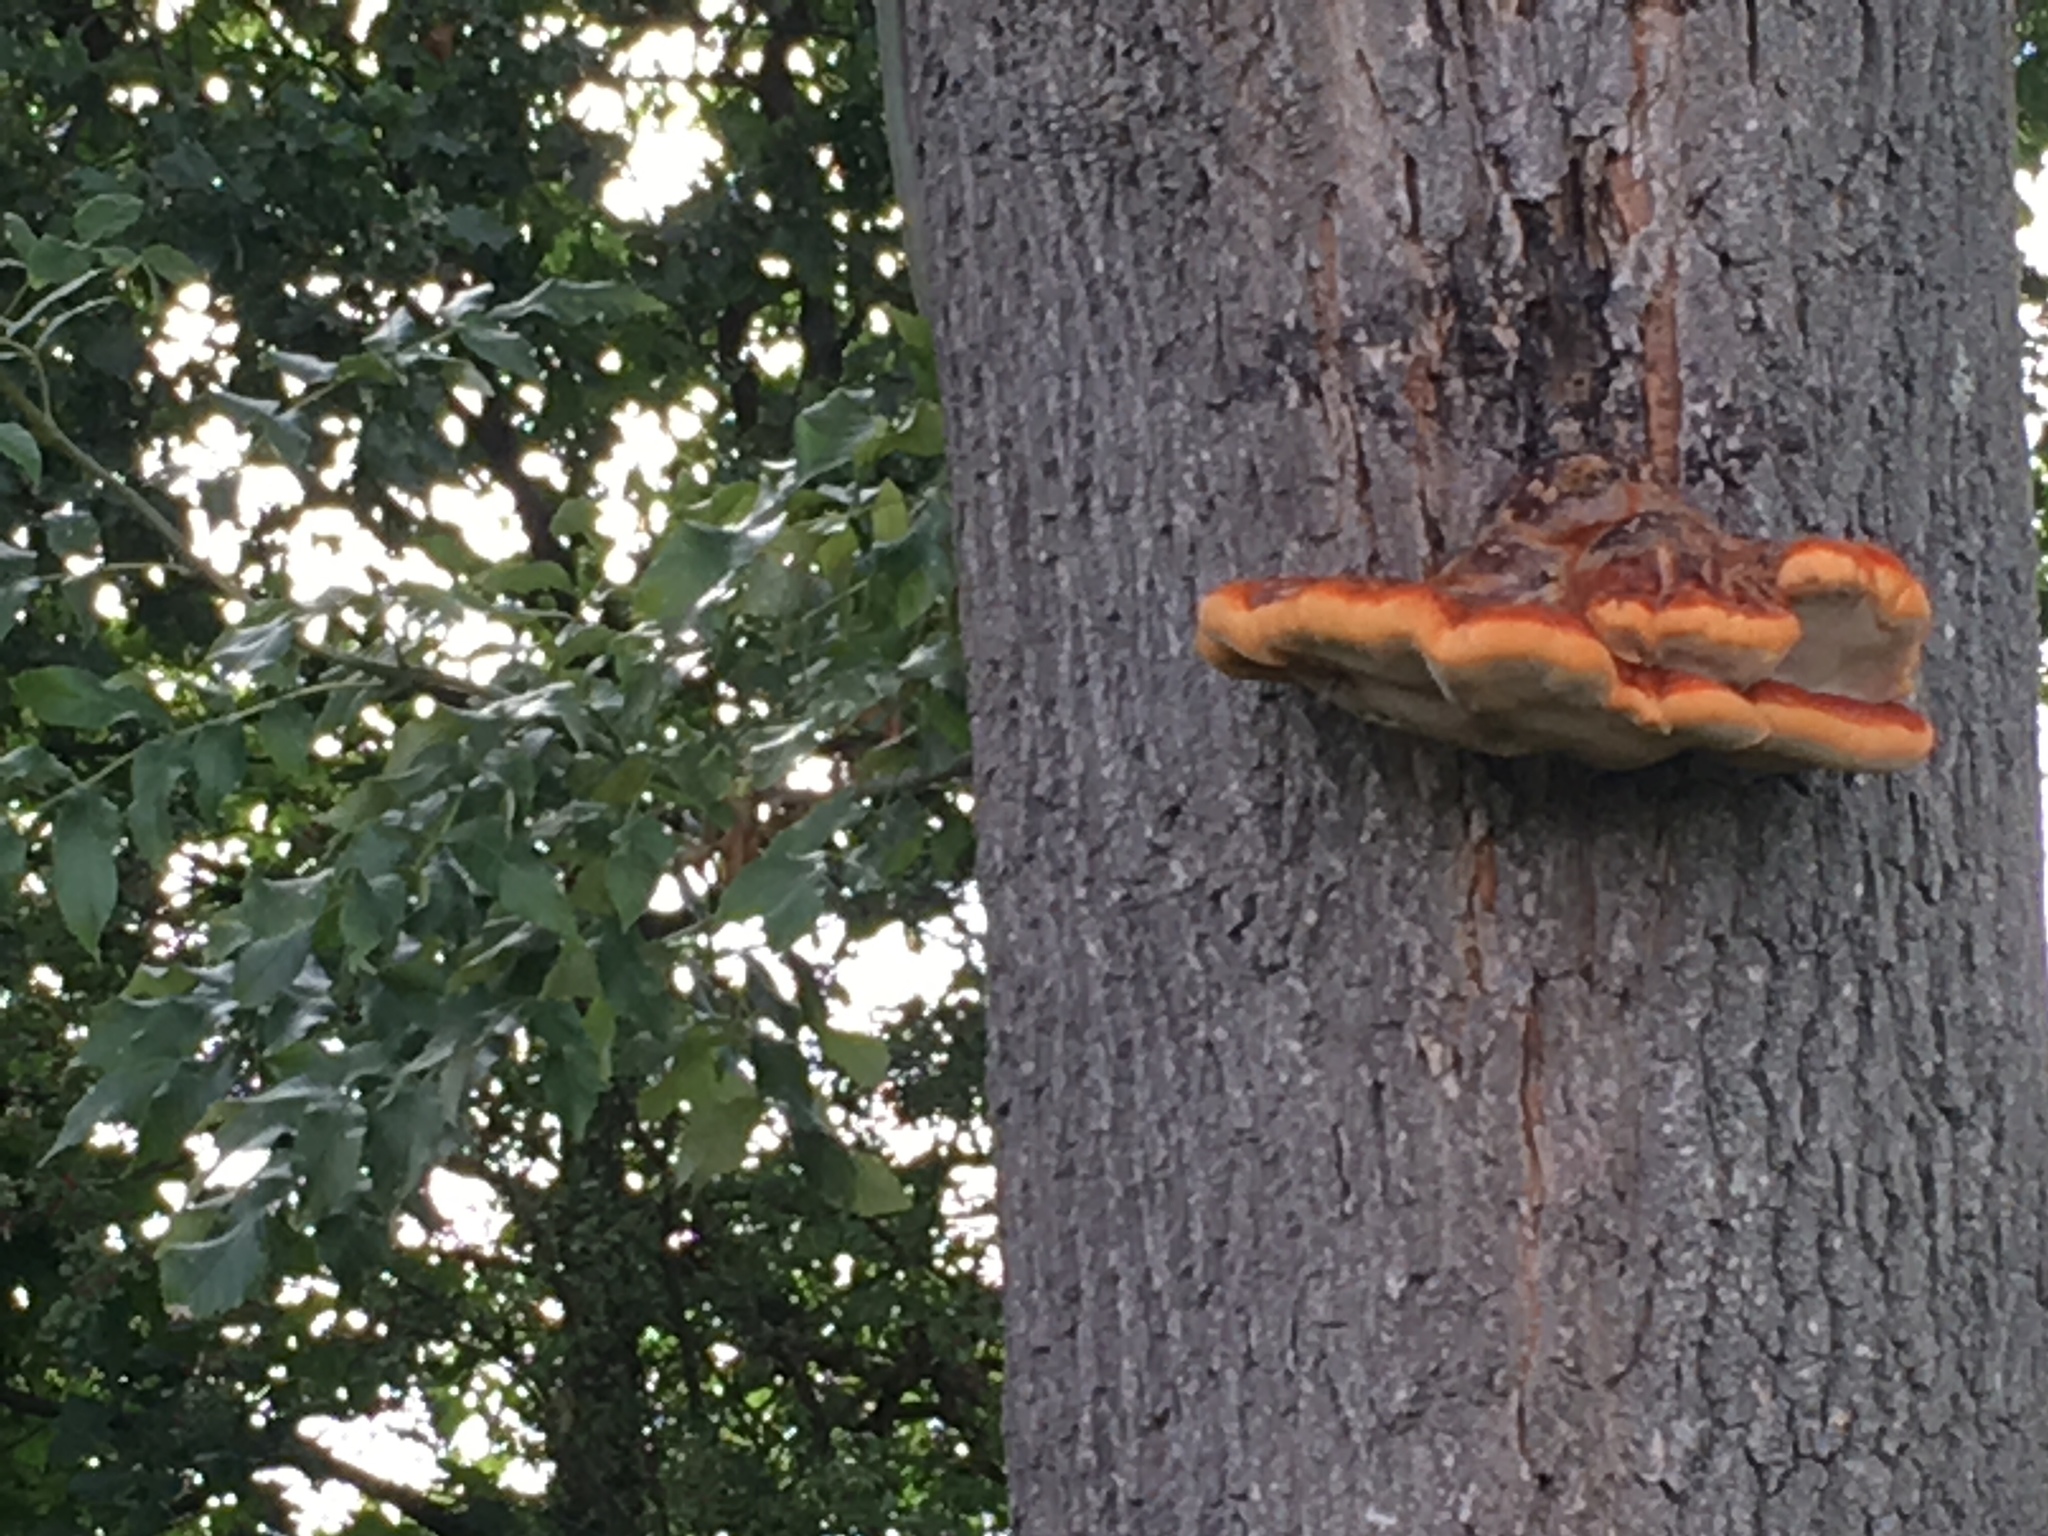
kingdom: Fungi
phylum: Basidiomycota
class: Agaricomycetes
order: Hymenochaetales
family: Hymenochaetaceae
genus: Inonotus
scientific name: Inonotus hispidus
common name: Shaggy bracket
